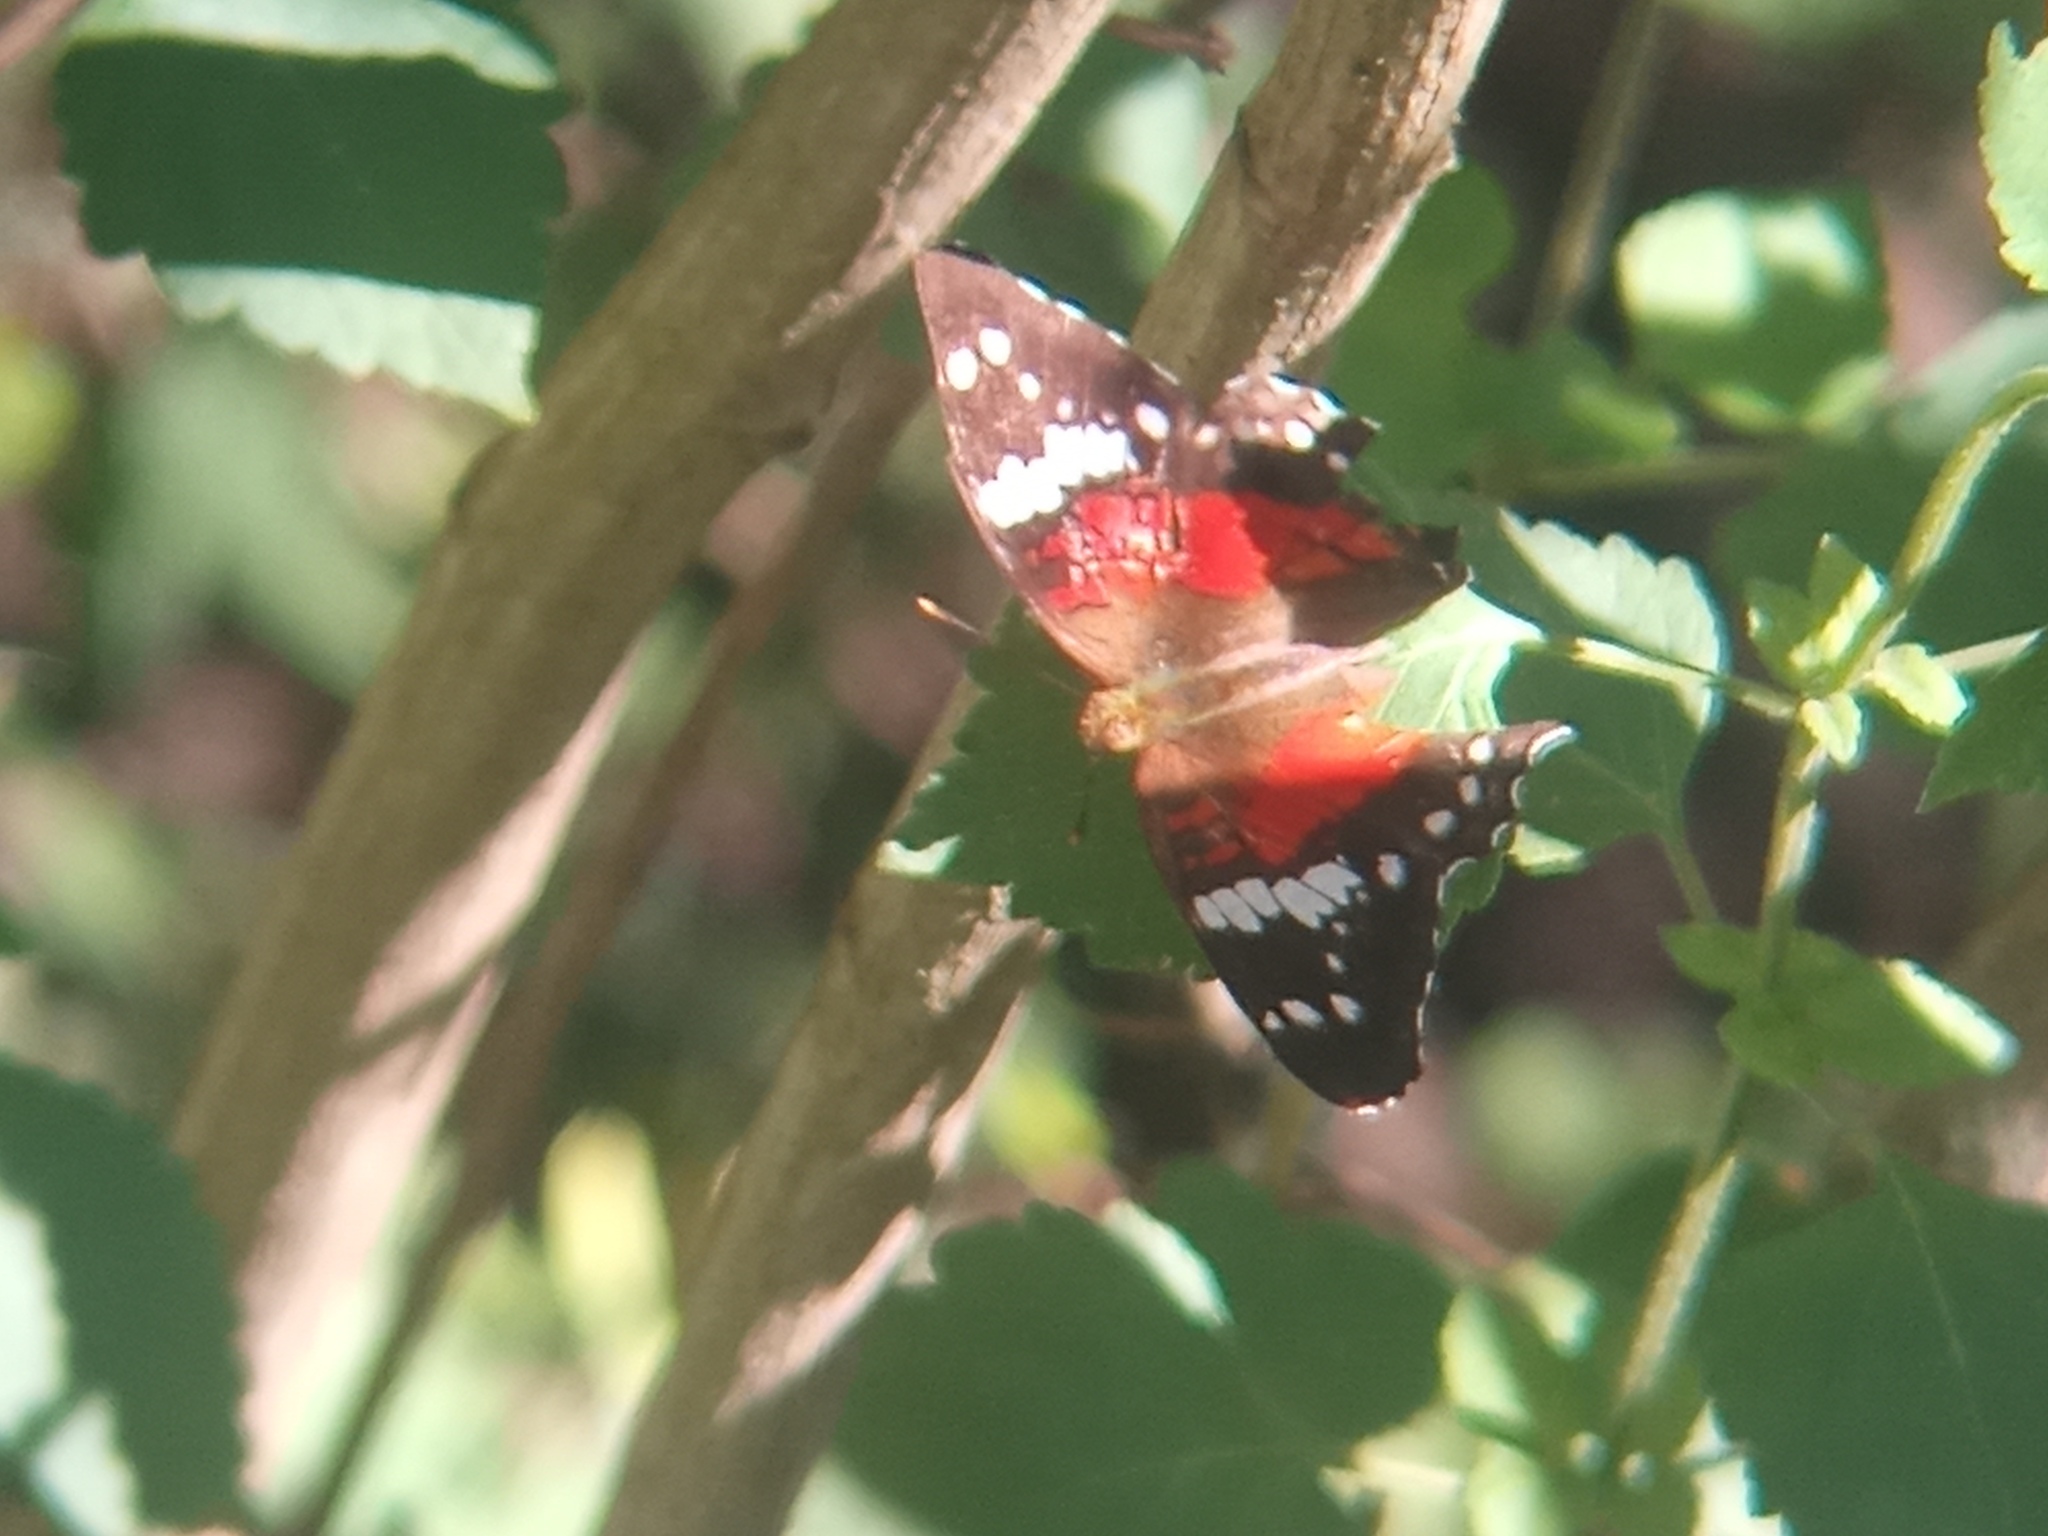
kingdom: Animalia
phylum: Arthropoda
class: Insecta
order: Lepidoptera
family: Nymphalidae
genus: Anartia
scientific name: Anartia amathea
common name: Red peacock
